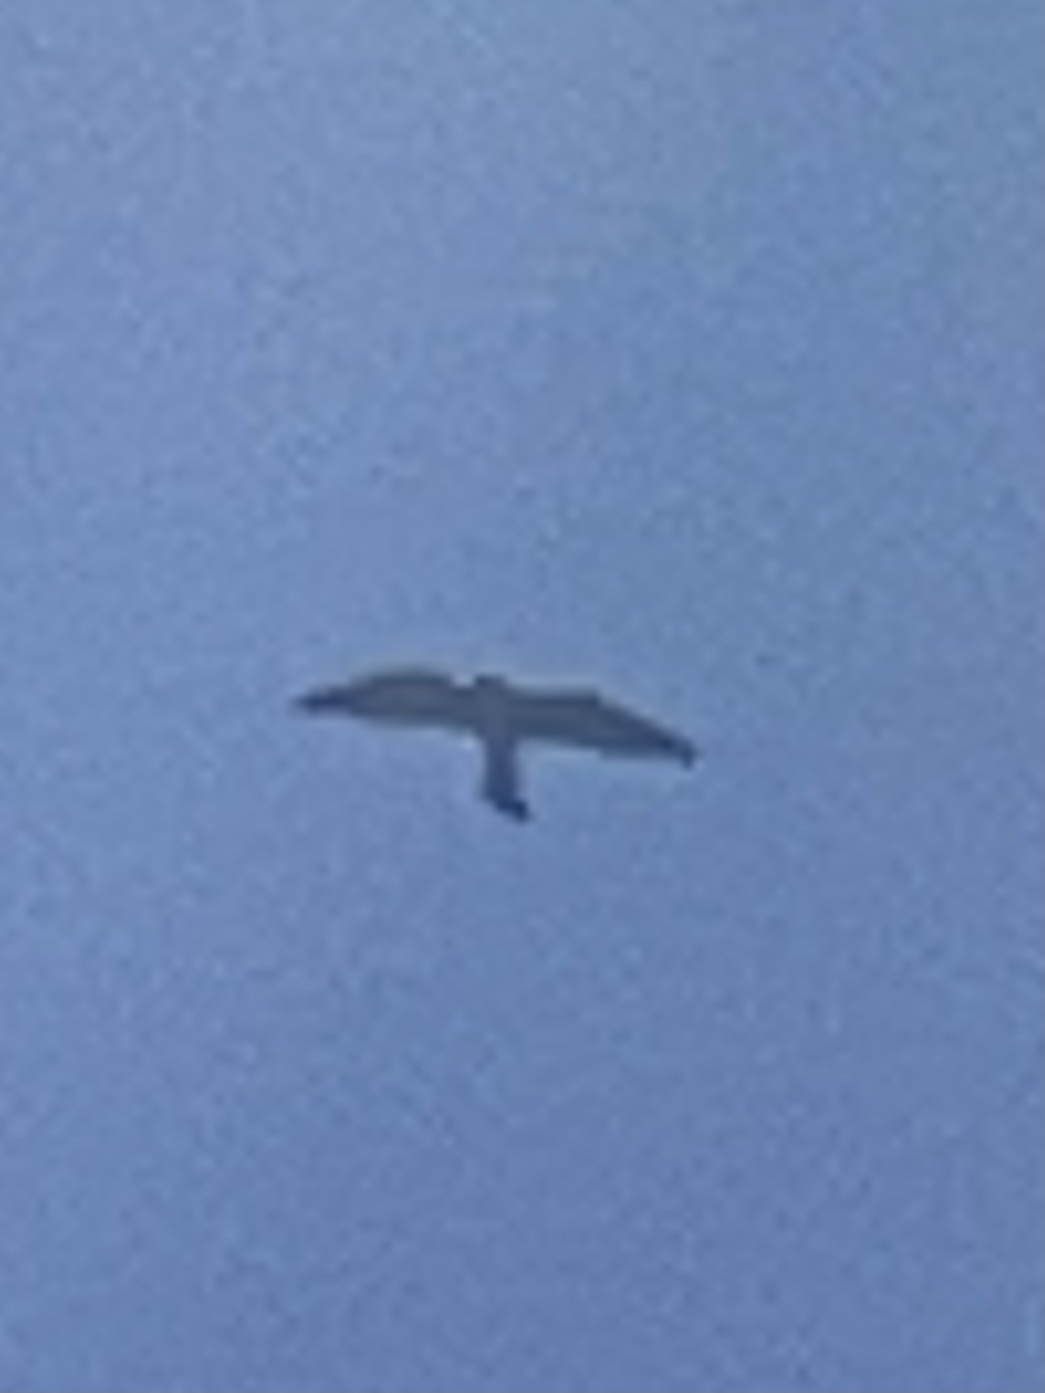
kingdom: Animalia
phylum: Chordata
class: Aves
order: Accipitriformes
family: Accipitridae
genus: Ictinia
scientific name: Ictinia mississippiensis
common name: Mississippi kite
